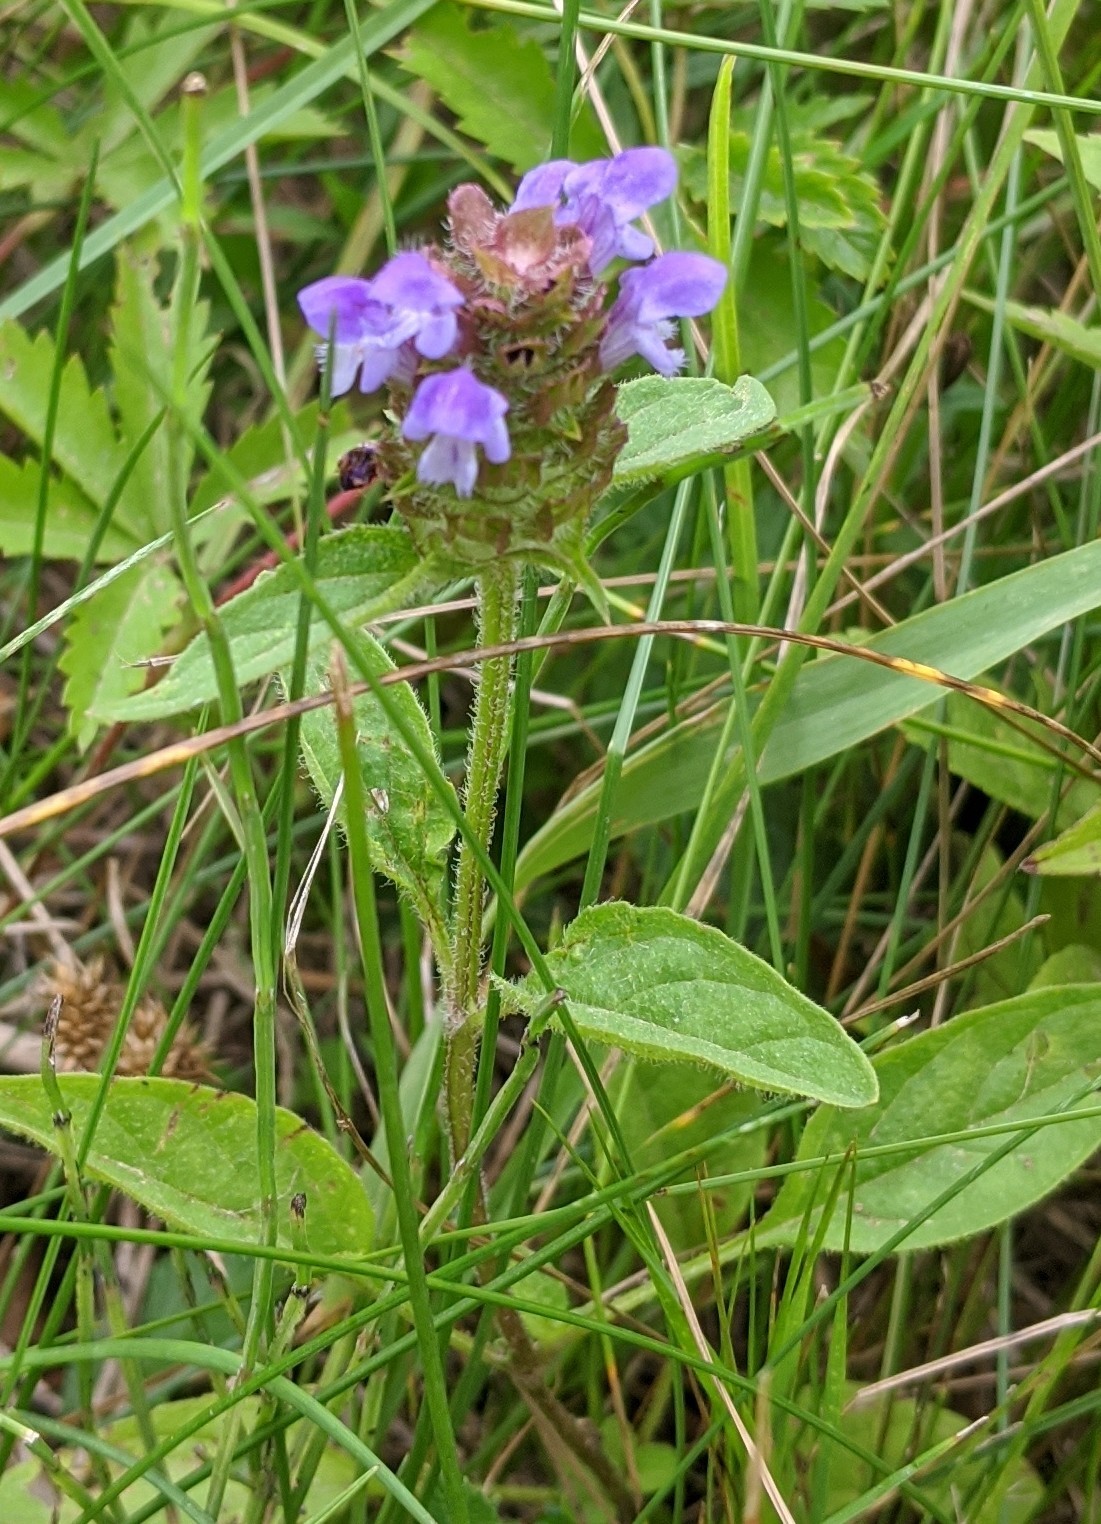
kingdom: Plantae
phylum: Tracheophyta
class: Magnoliopsida
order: Lamiales
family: Lamiaceae
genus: Prunella
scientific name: Prunella vulgaris
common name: Heal-all
